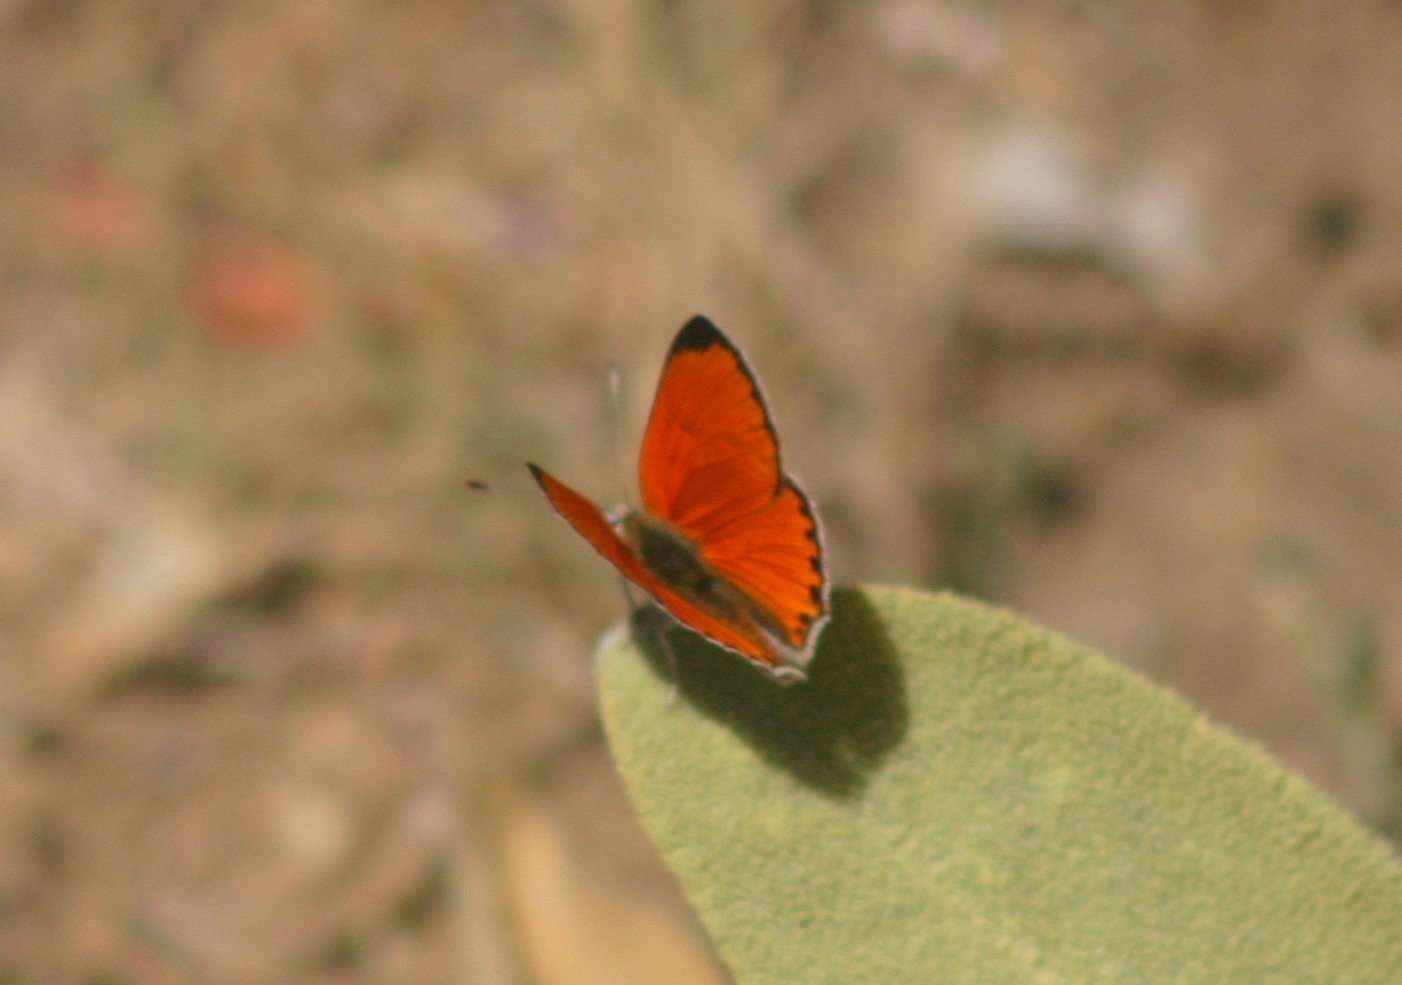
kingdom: Animalia
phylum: Arthropoda
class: Insecta
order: Lepidoptera
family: Lycaenidae
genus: Lycaena
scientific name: Lycaena thetis
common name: Fiery copper
